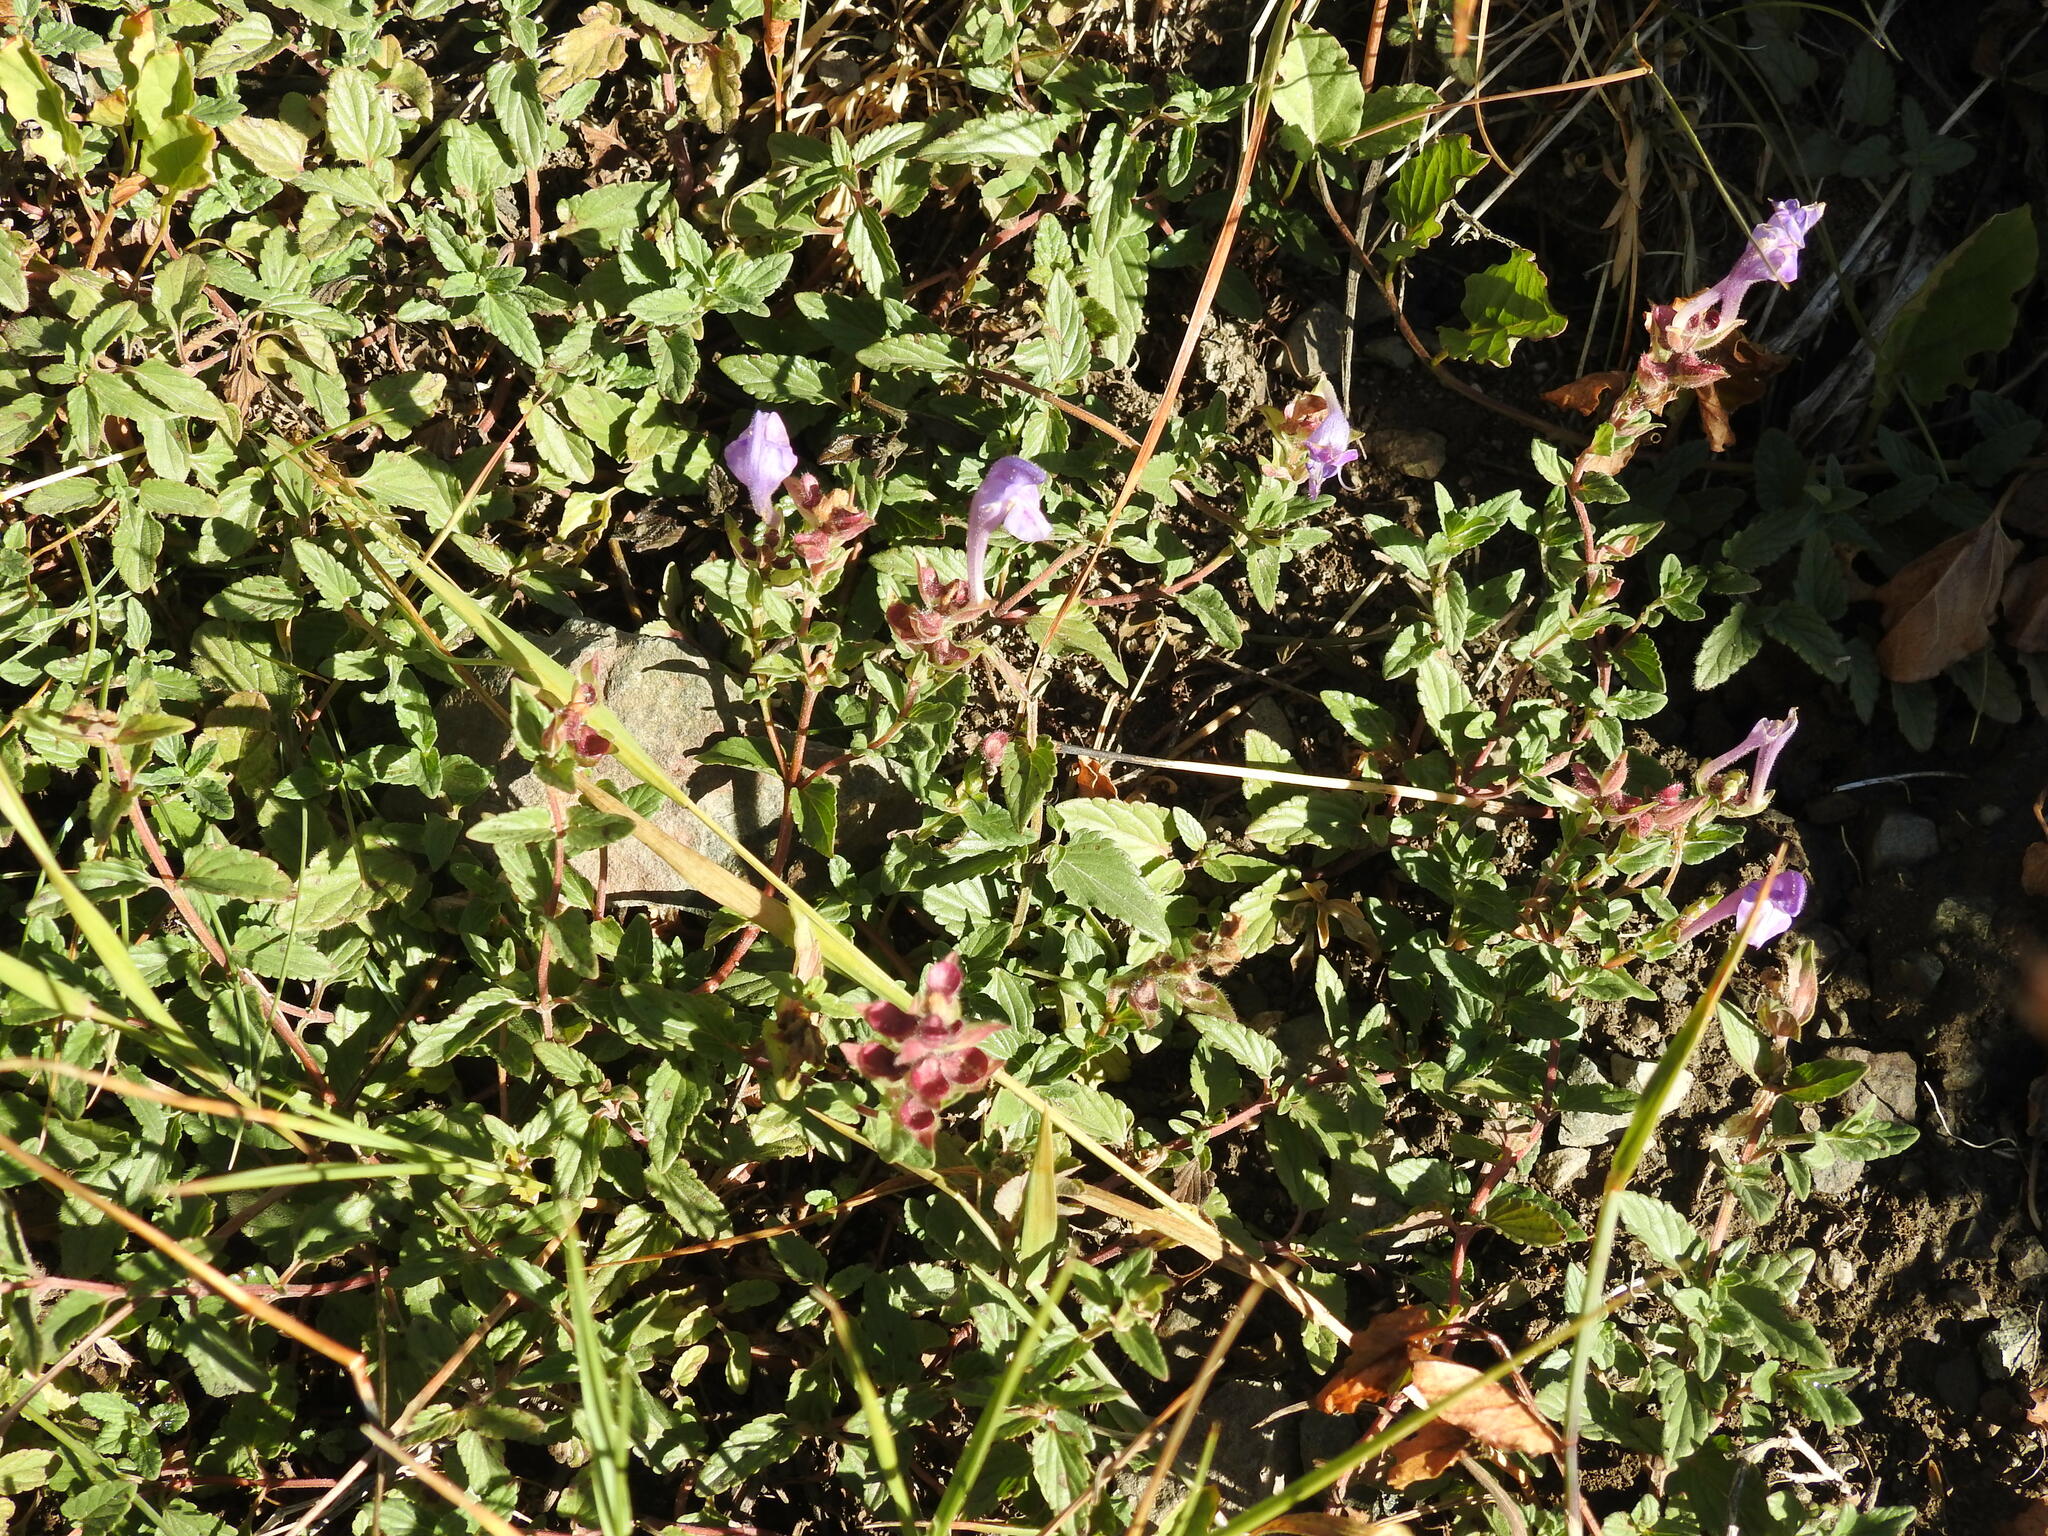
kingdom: Plantae
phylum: Tracheophyta
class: Magnoliopsida
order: Lamiales
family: Lamiaceae
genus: Scutellaria
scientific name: Scutellaria alpina
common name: Alpine scullcap
